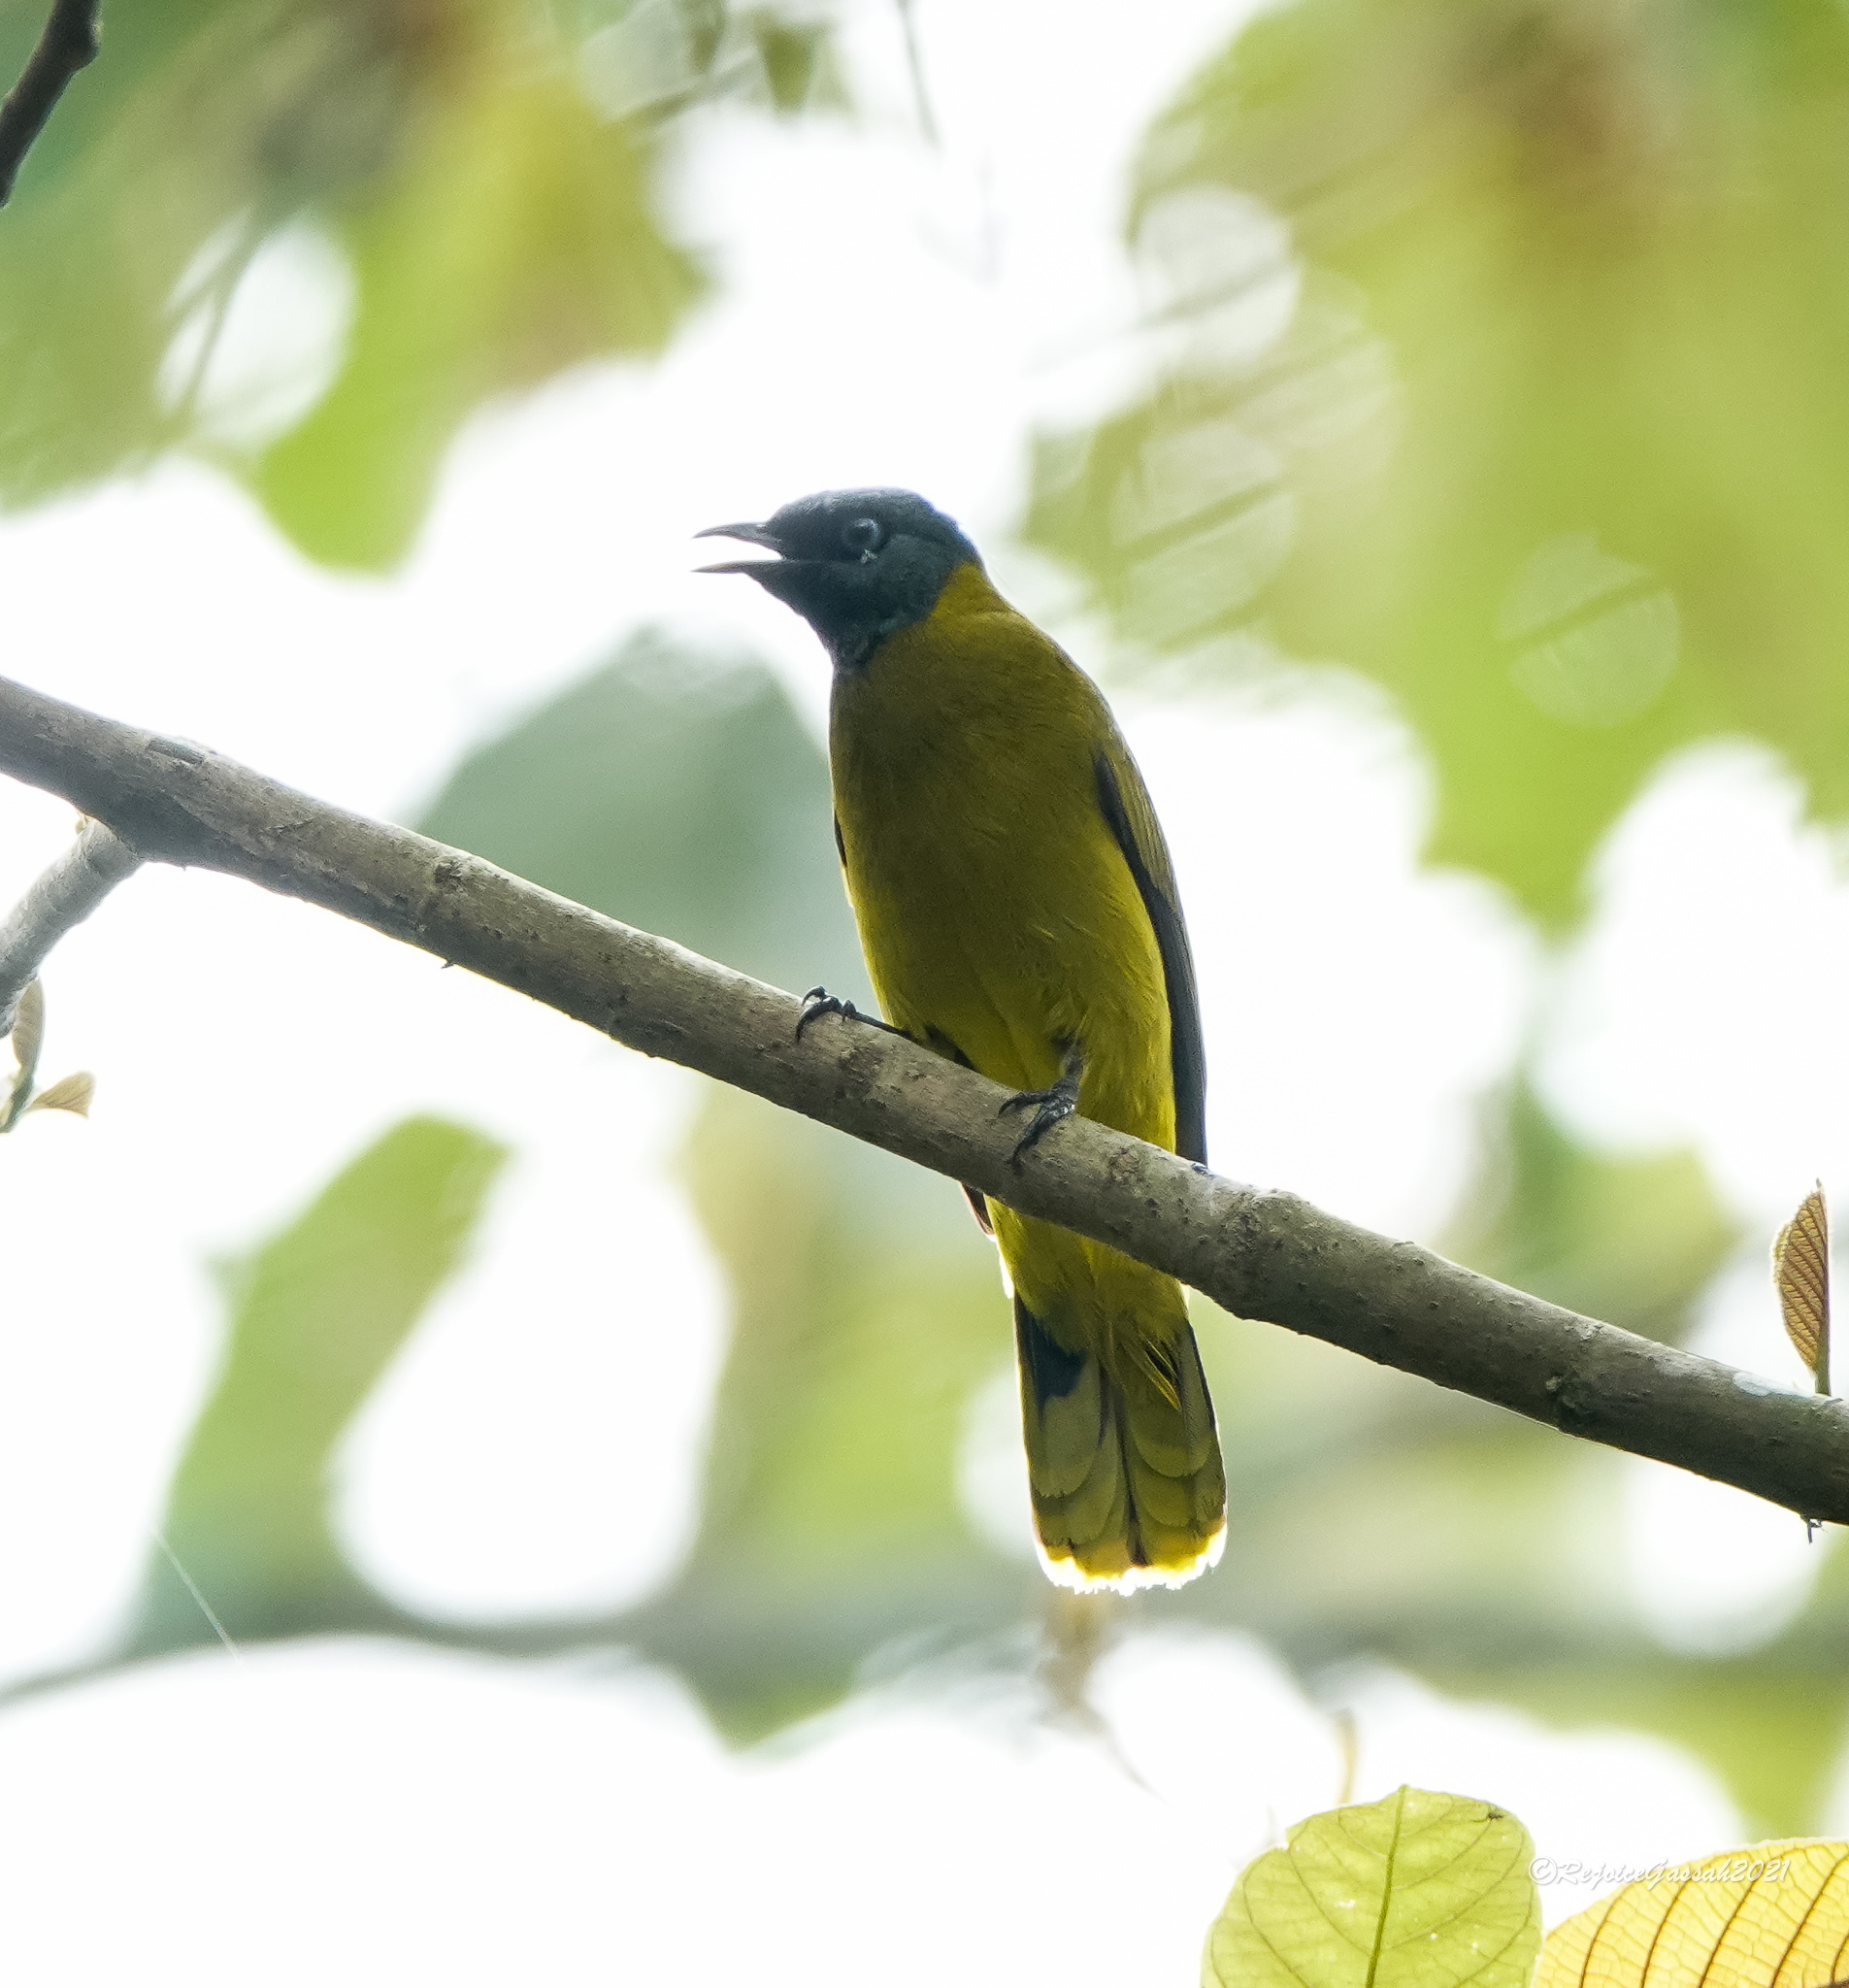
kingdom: Animalia
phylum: Chordata
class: Aves
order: Passeriformes
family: Pycnonotidae
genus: Microtarsus
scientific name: Microtarsus
